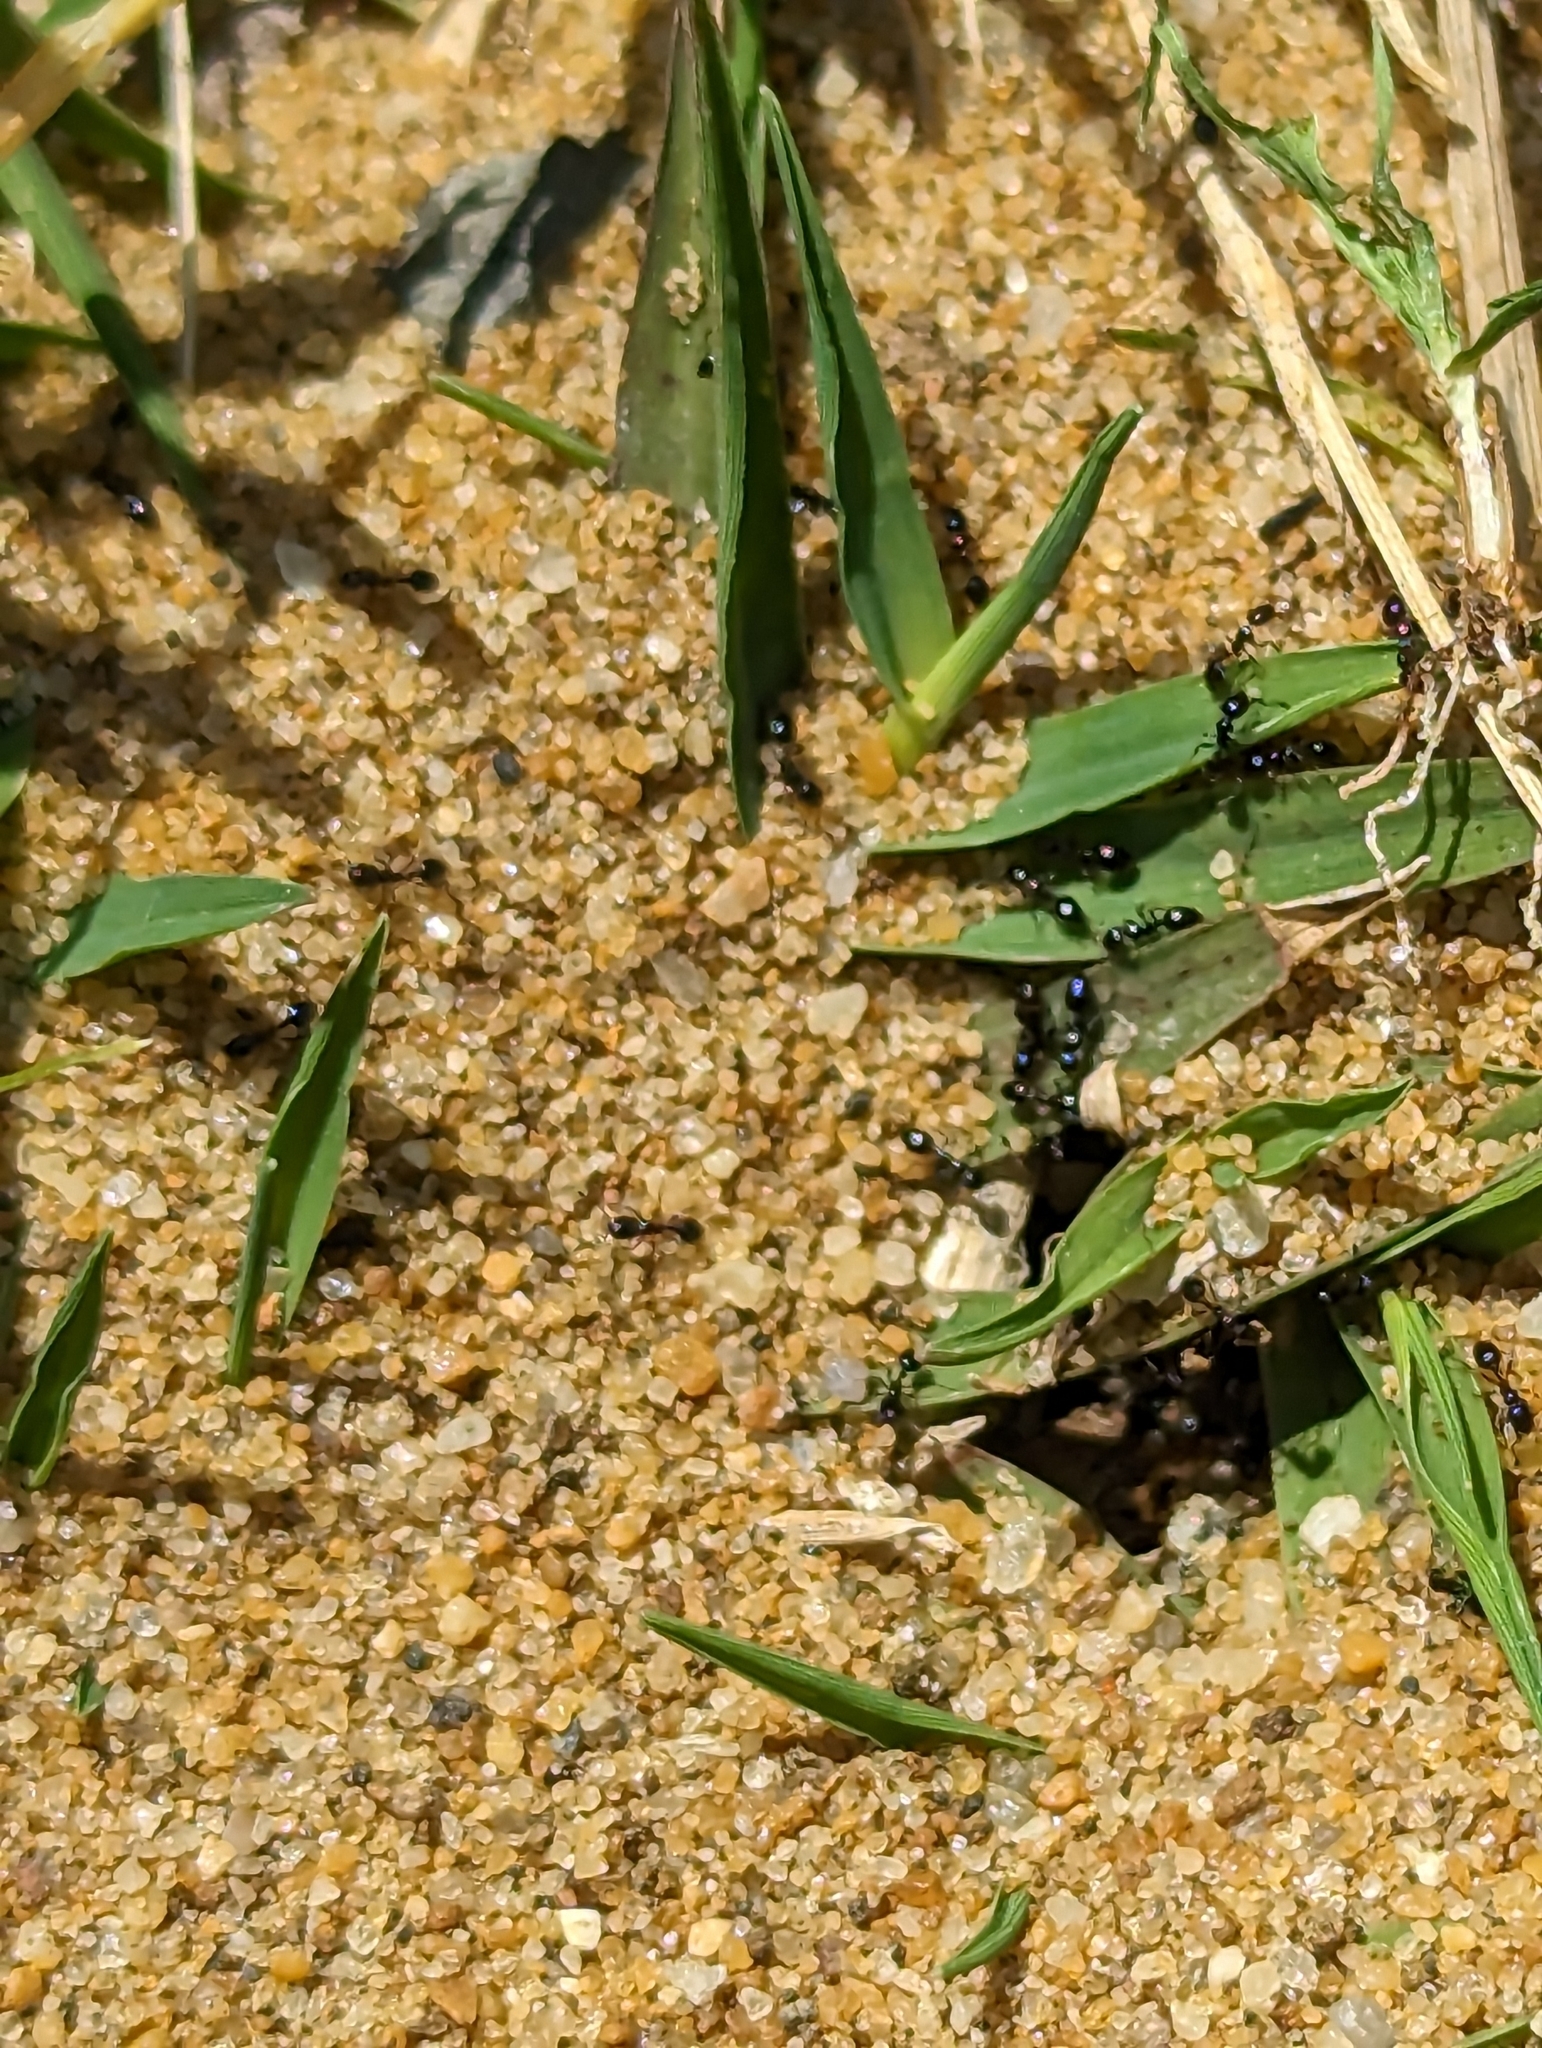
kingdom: Animalia
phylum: Arthropoda
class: Insecta
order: Hymenoptera
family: Formicidae
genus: Monomorium
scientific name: Monomorium
